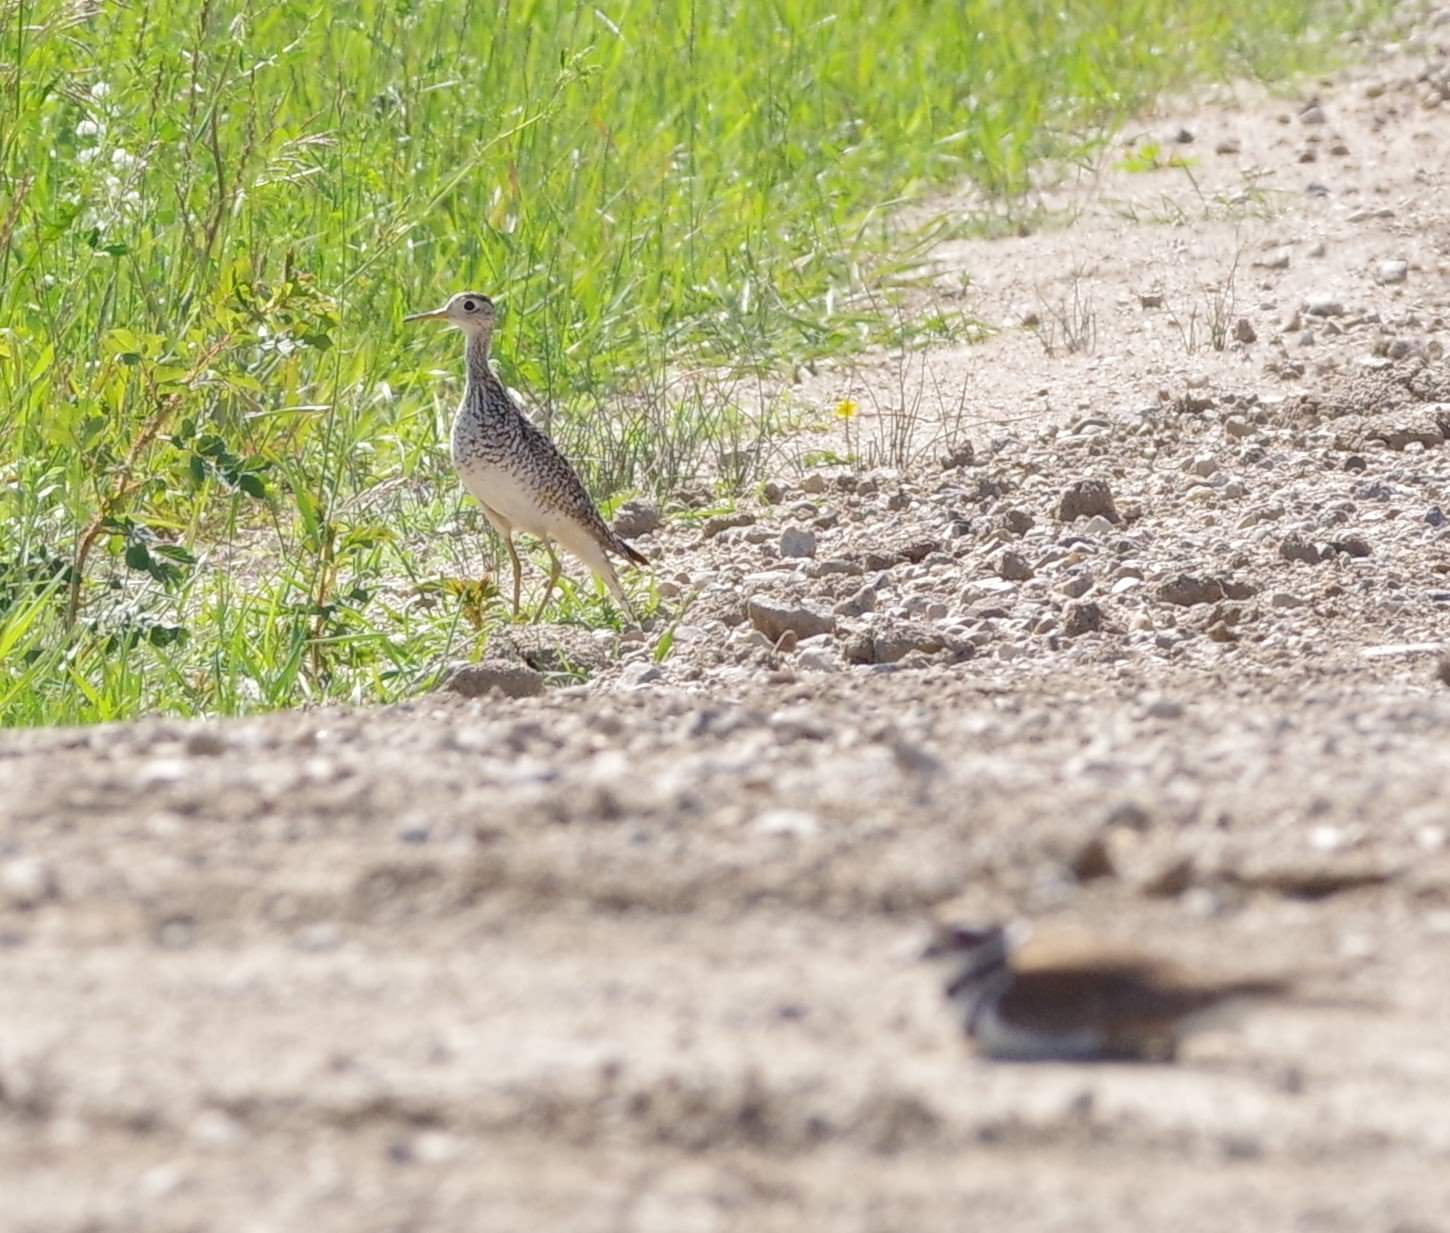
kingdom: Animalia
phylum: Chordata
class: Aves
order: Charadriiformes
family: Scolopacidae
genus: Bartramia
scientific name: Bartramia longicauda
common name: Upland sandpiper
